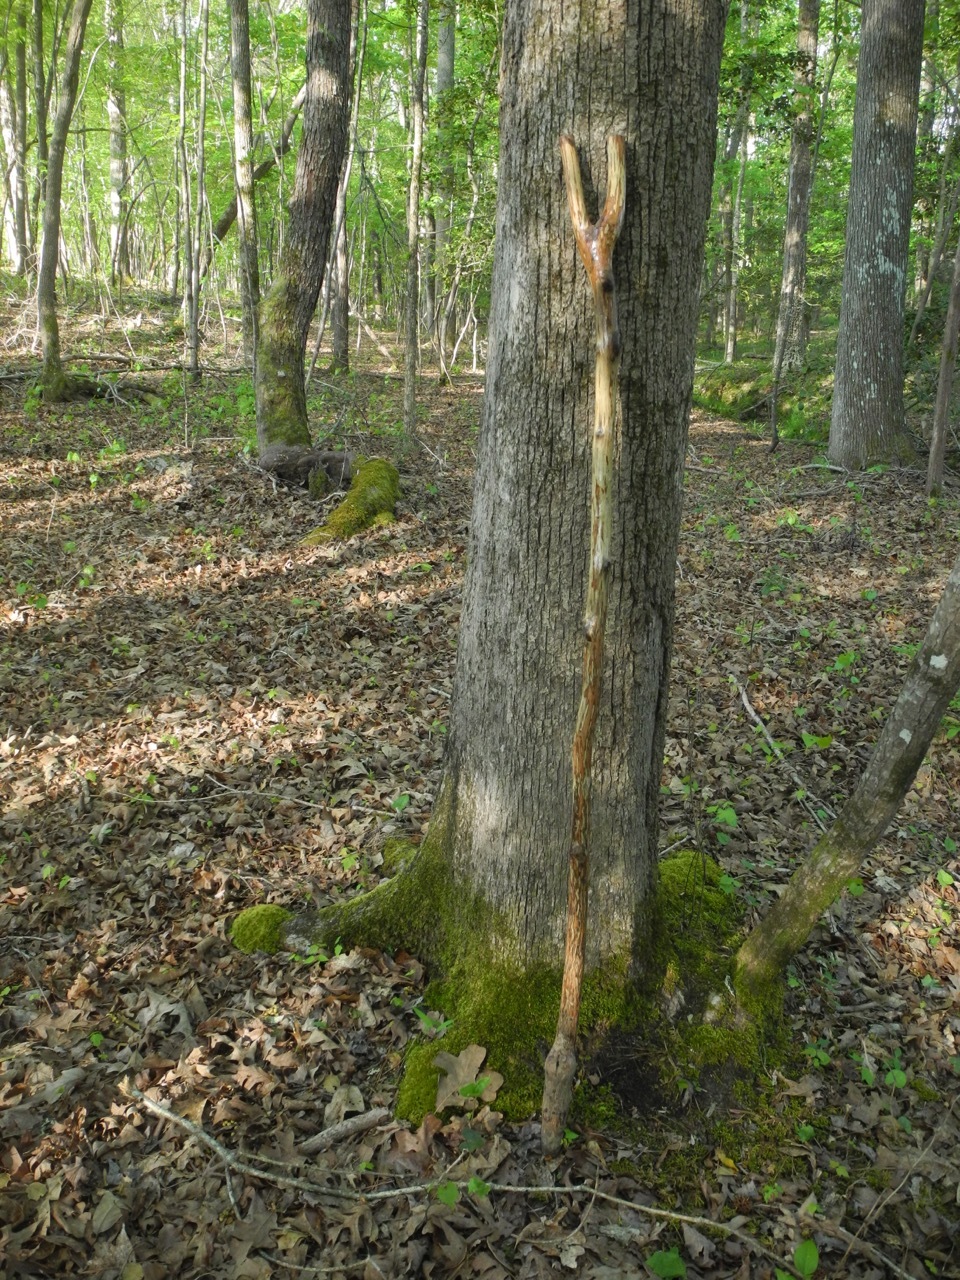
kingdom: Plantae
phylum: Tracheophyta
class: Magnoliopsida
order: Fagales
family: Fagaceae
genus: Quercus
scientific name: Quercus stellata
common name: Post oak
